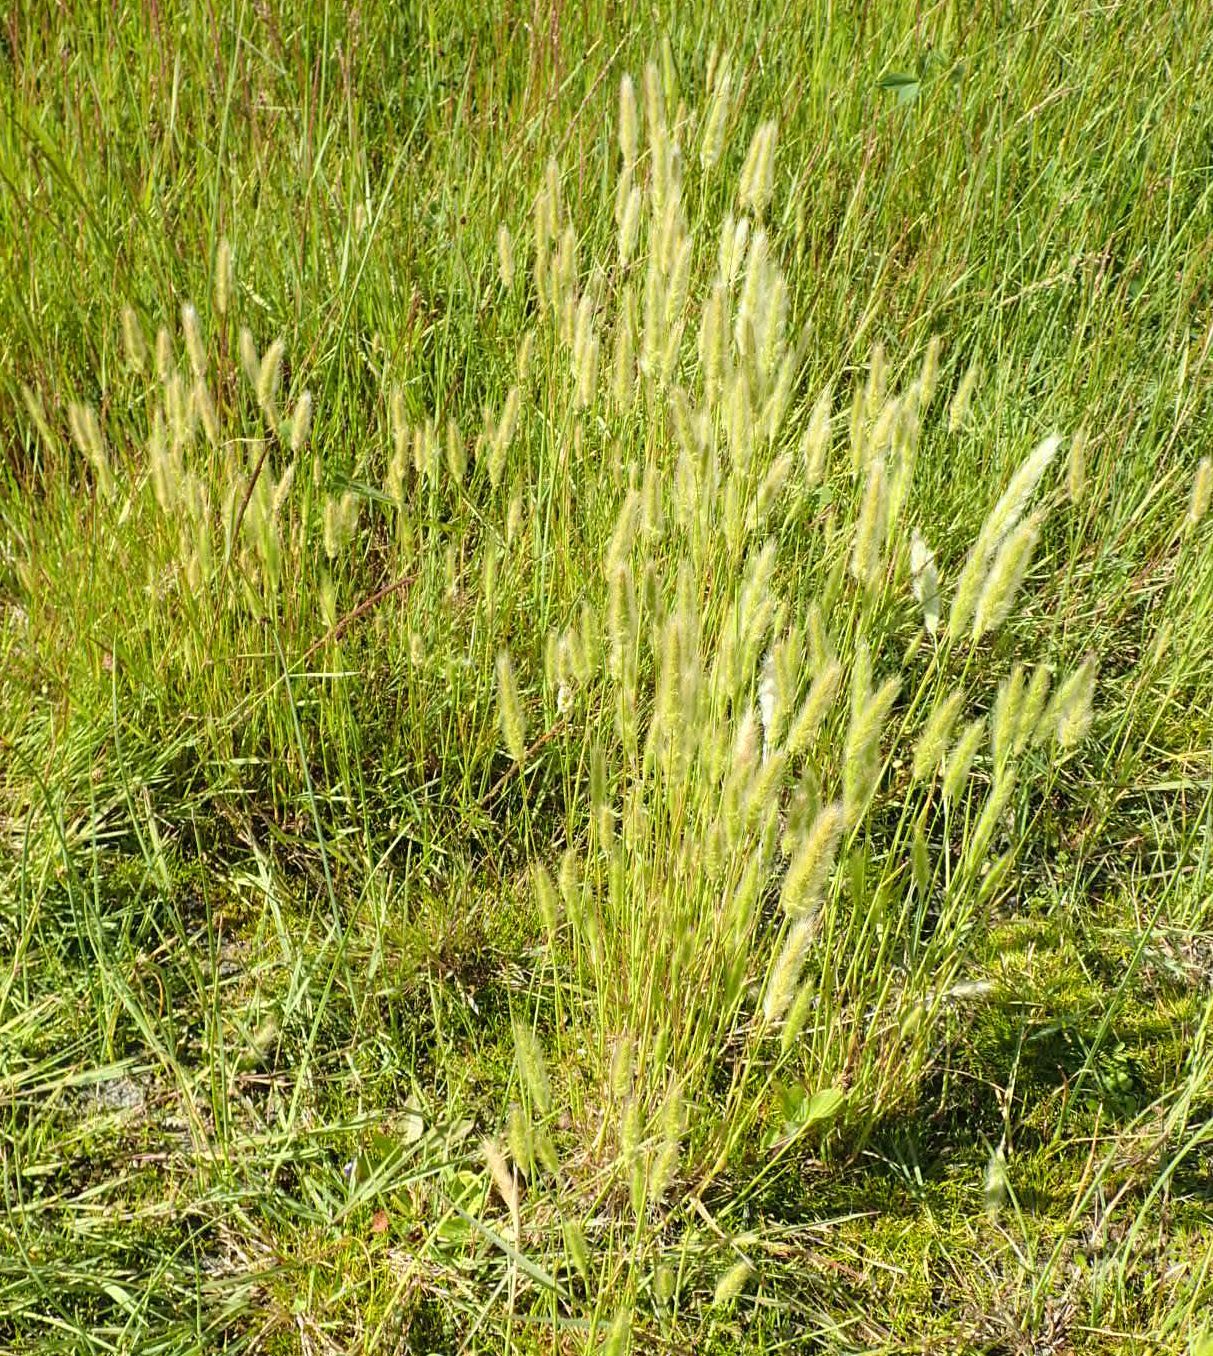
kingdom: Plantae
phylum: Tracheophyta
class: Liliopsida
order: Poales
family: Poaceae
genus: Polypogon
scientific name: Polypogon monspeliensis
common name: Annual rabbitsfoot grass
